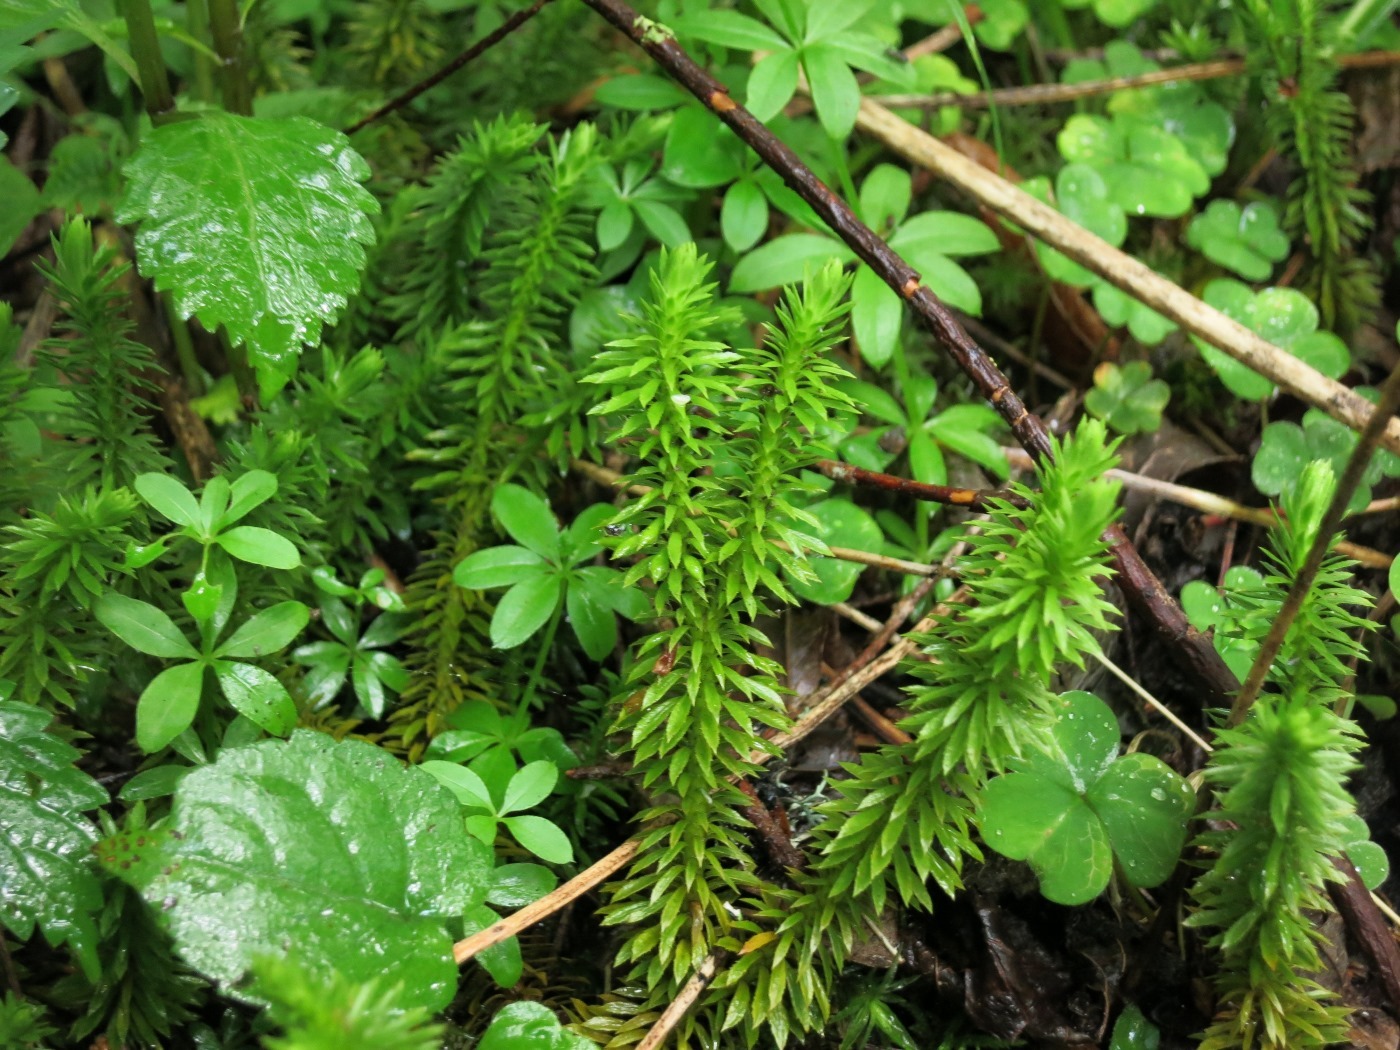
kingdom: Plantae
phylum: Tracheophyta
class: Lycopodiopsida
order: Lycopodiales
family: Lycopodiaceae
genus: Huperzia
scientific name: Huperzia lucidula
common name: Shining clubmoss
